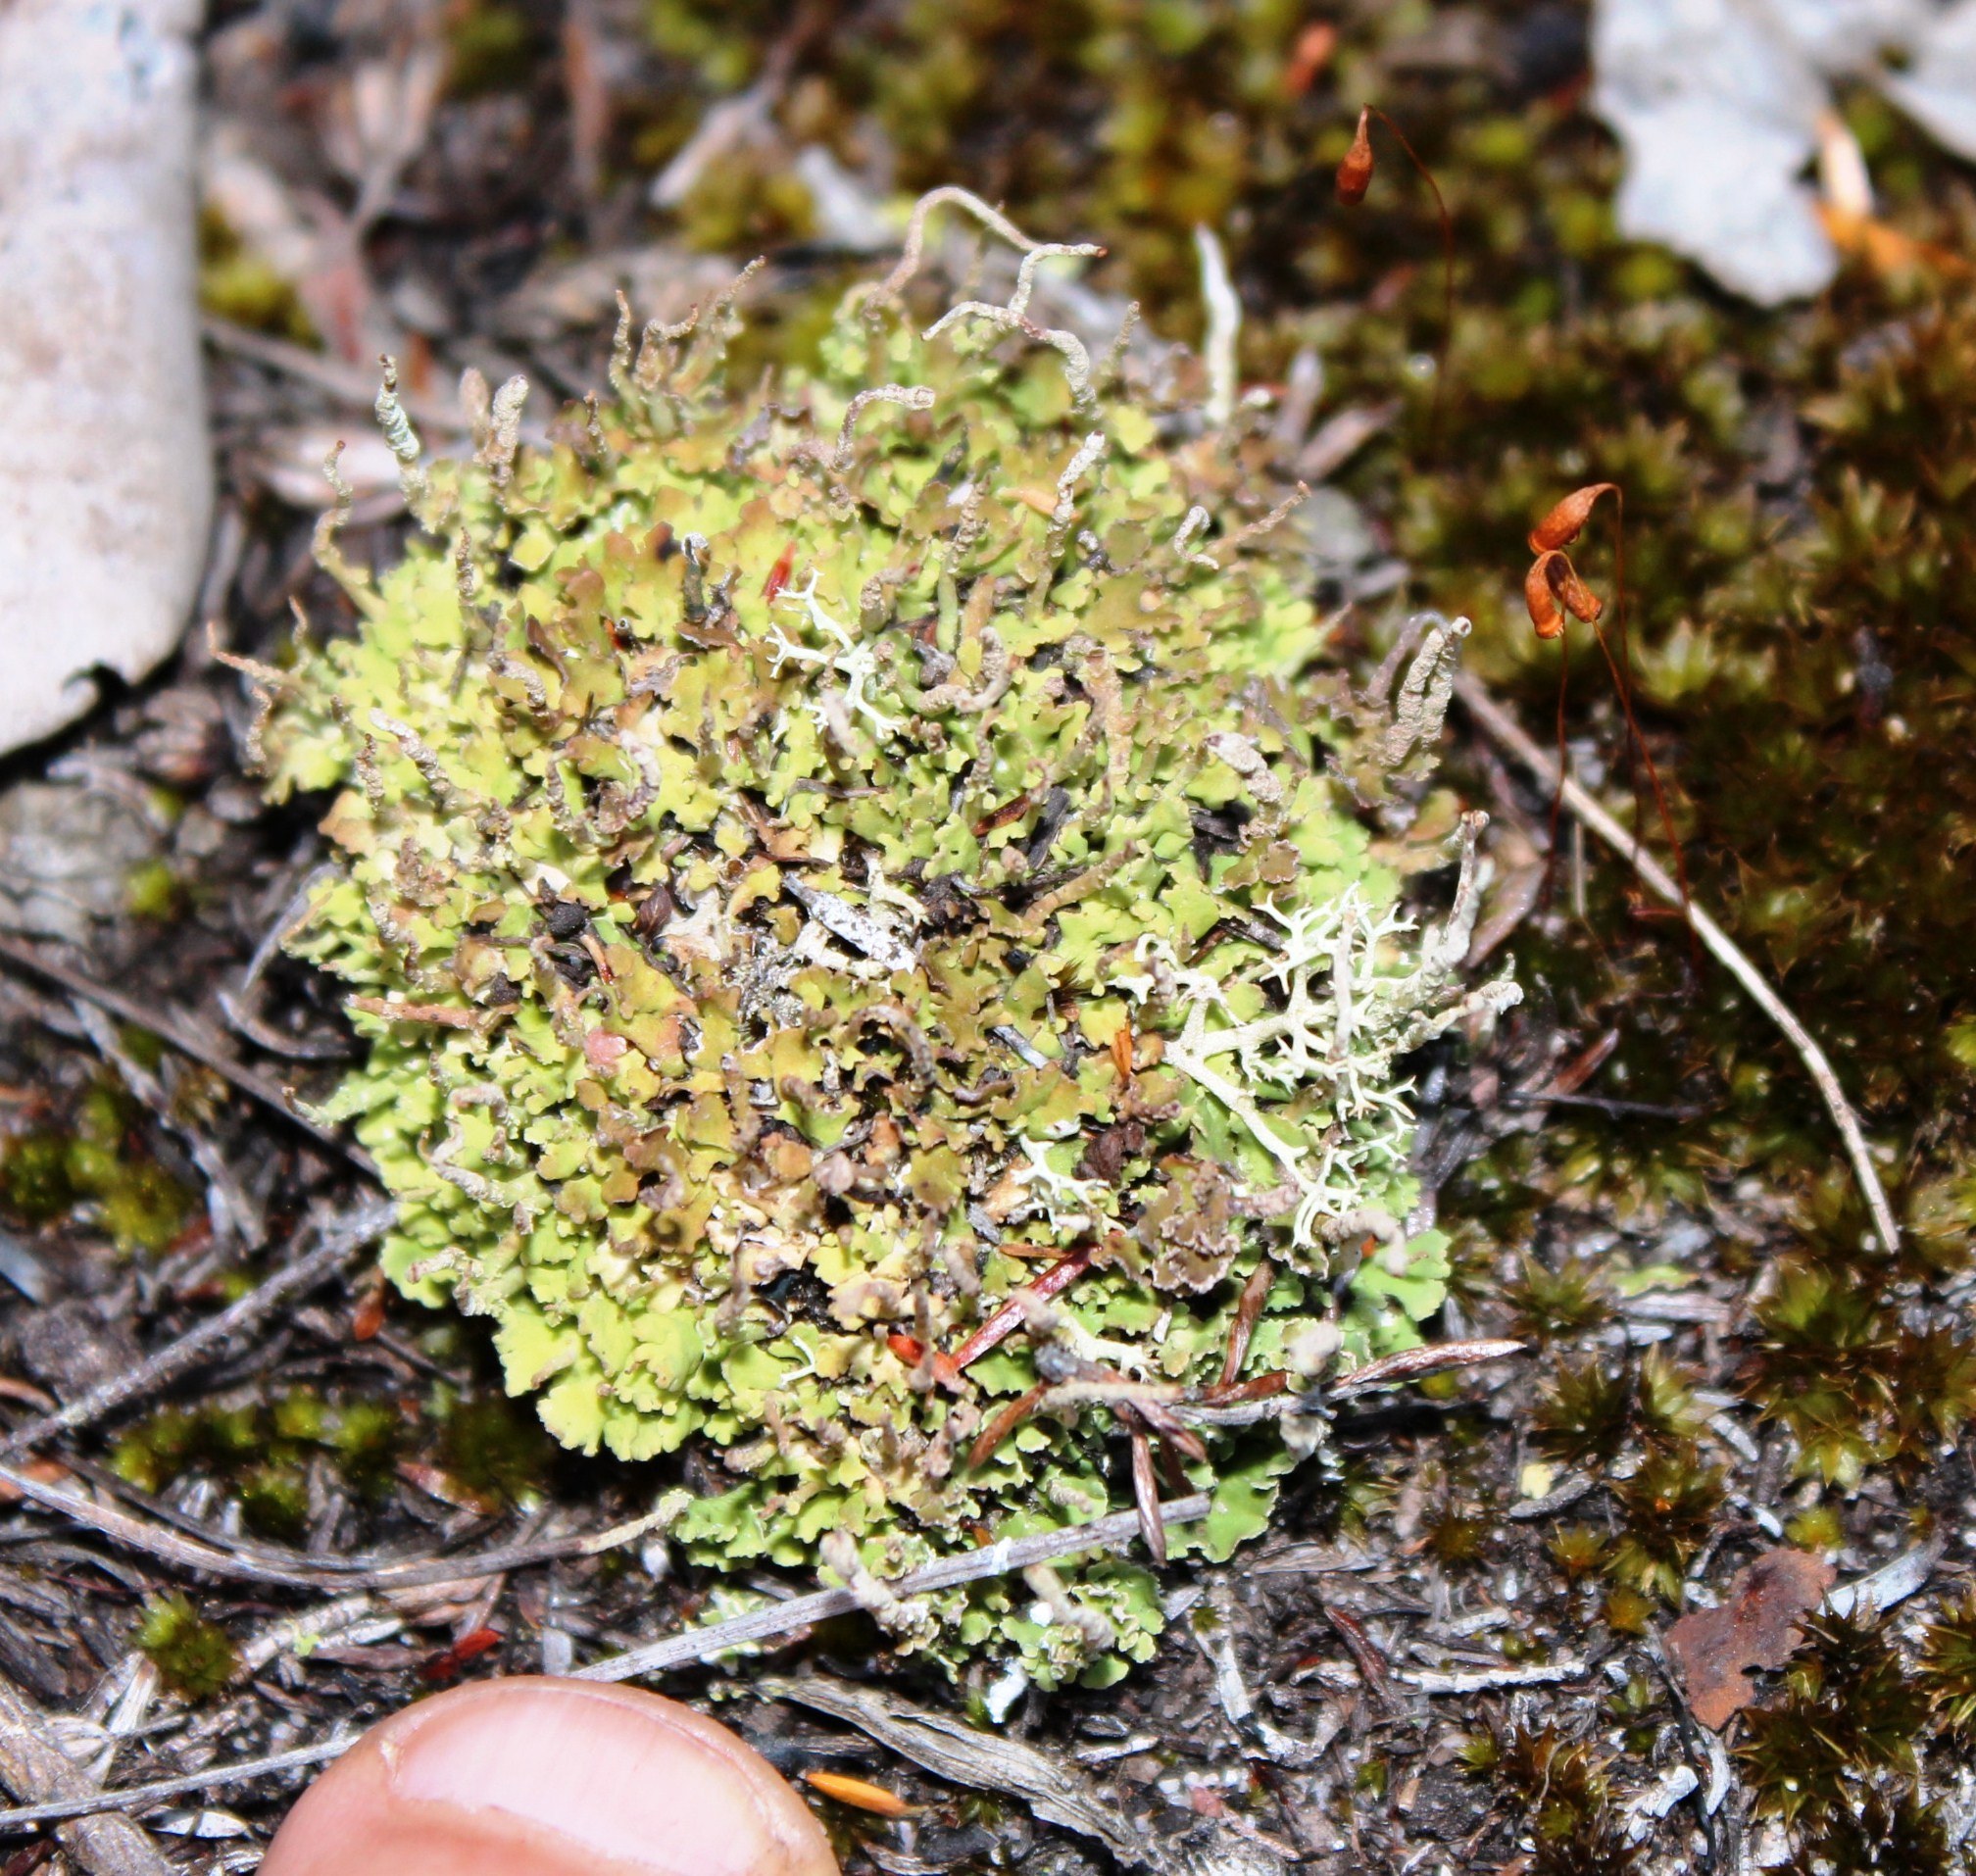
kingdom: Fungi
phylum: Ascomycota
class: Lecanoromycetes
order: Lecanorales
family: Cladoniaceae
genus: Cladonia
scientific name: Cladonia confusa
